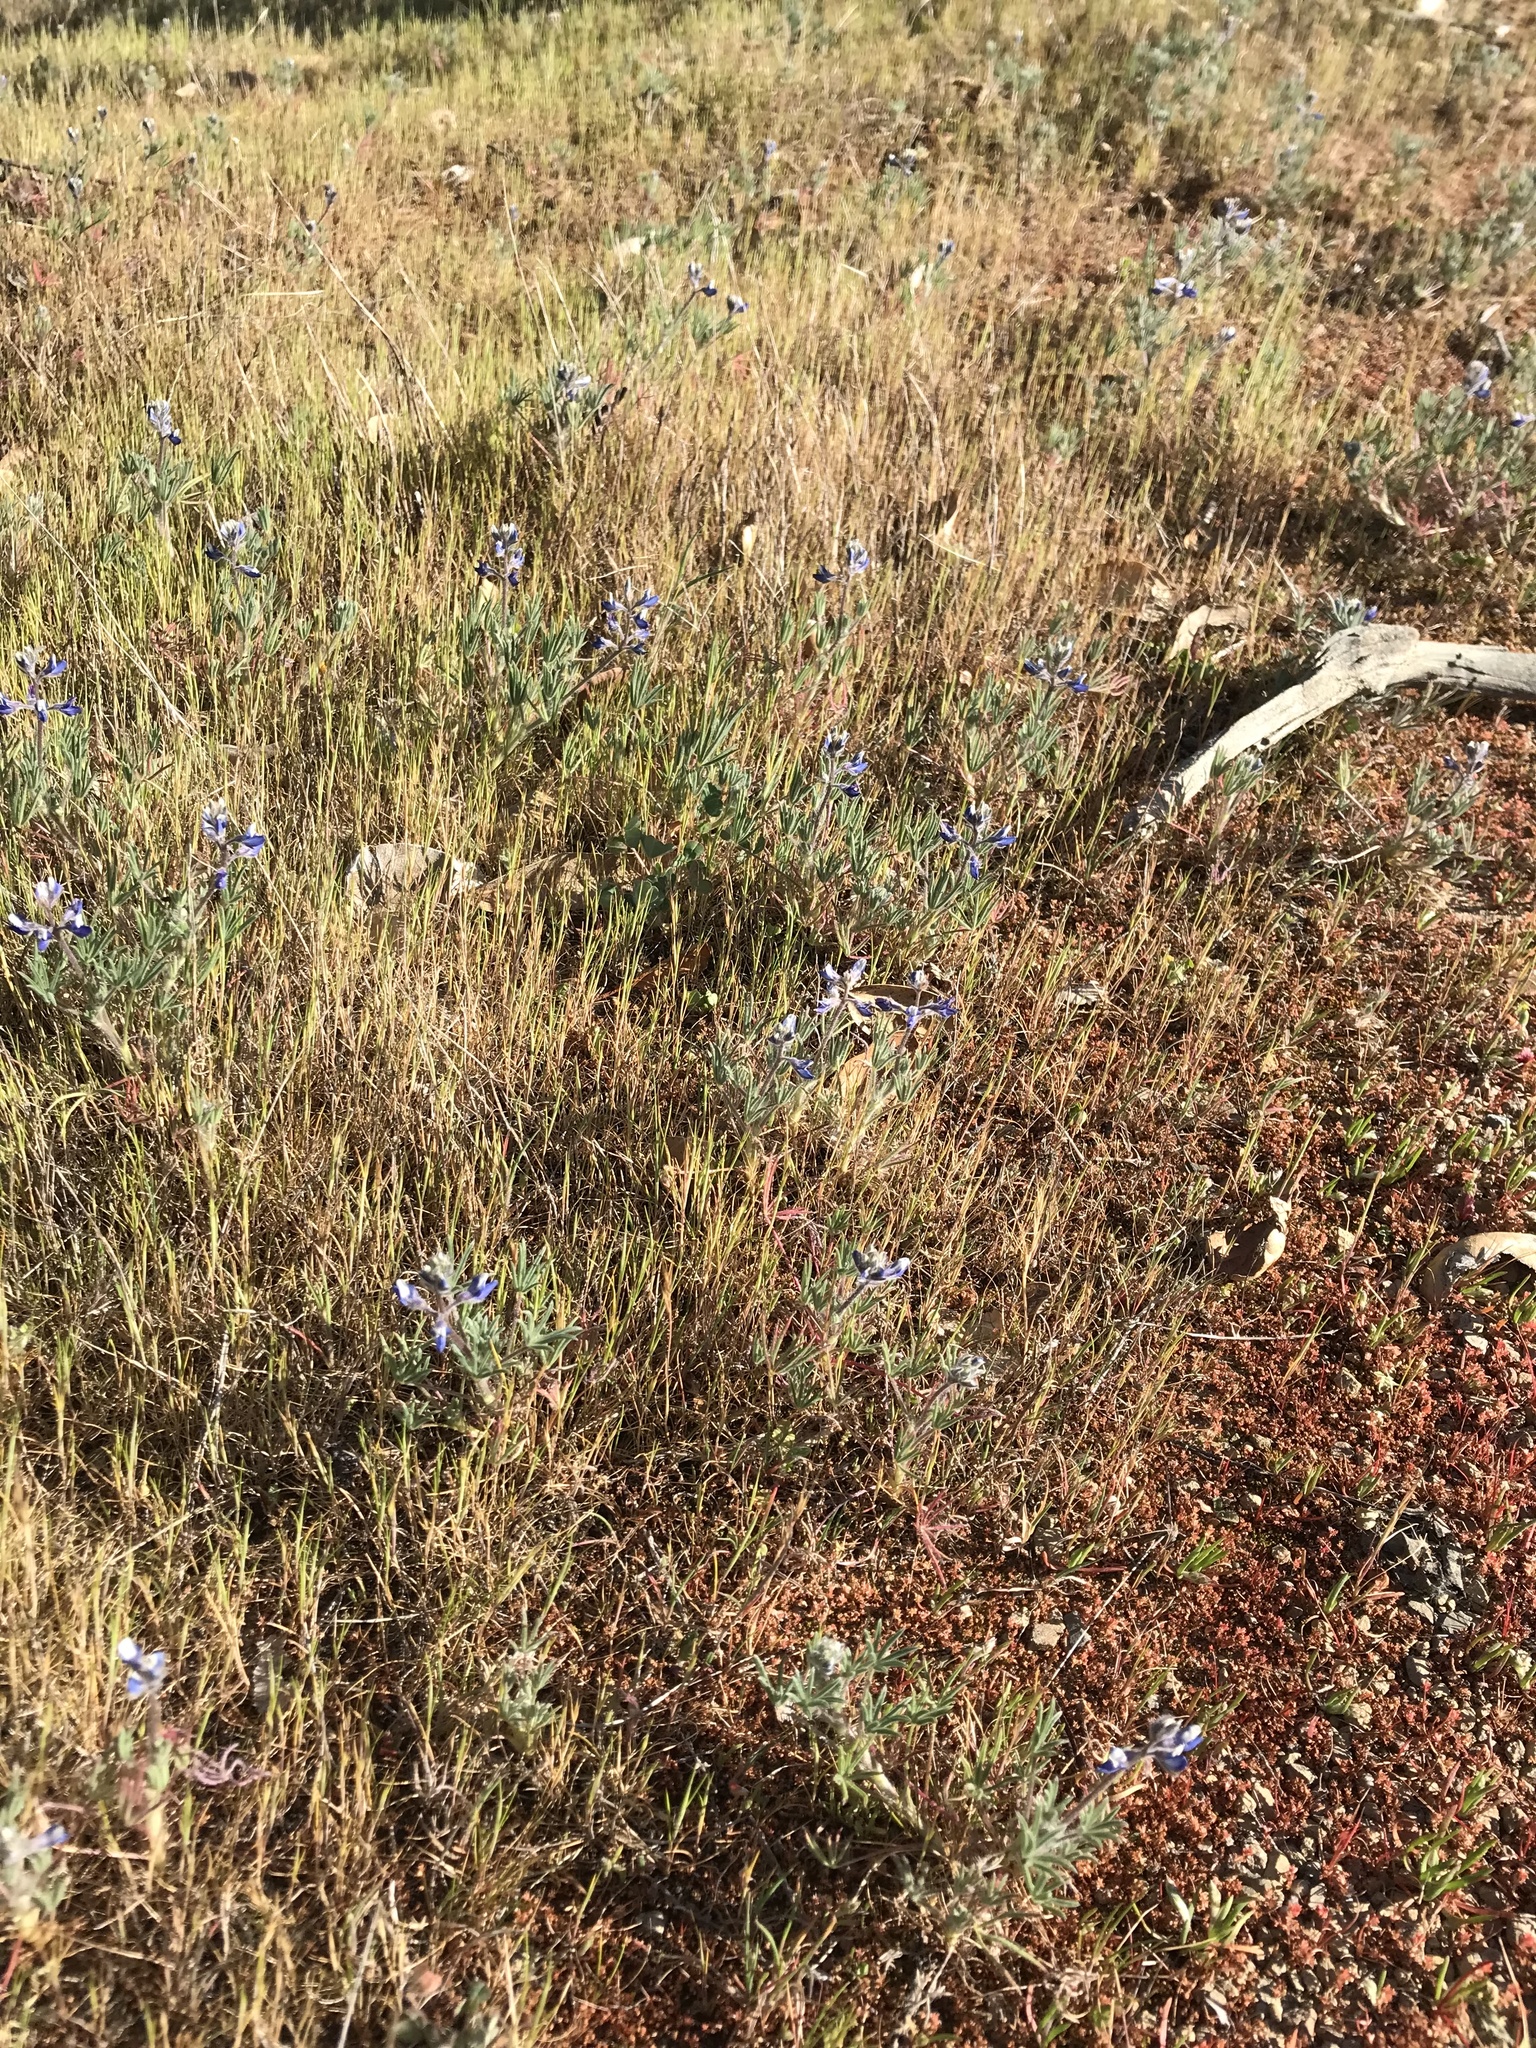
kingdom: Plantae
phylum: Tracheophyta
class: Magnoliopsida
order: Fabales
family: Fabaceae
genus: Lupinus
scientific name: Lupinus bicolor
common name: Miniature lupine
